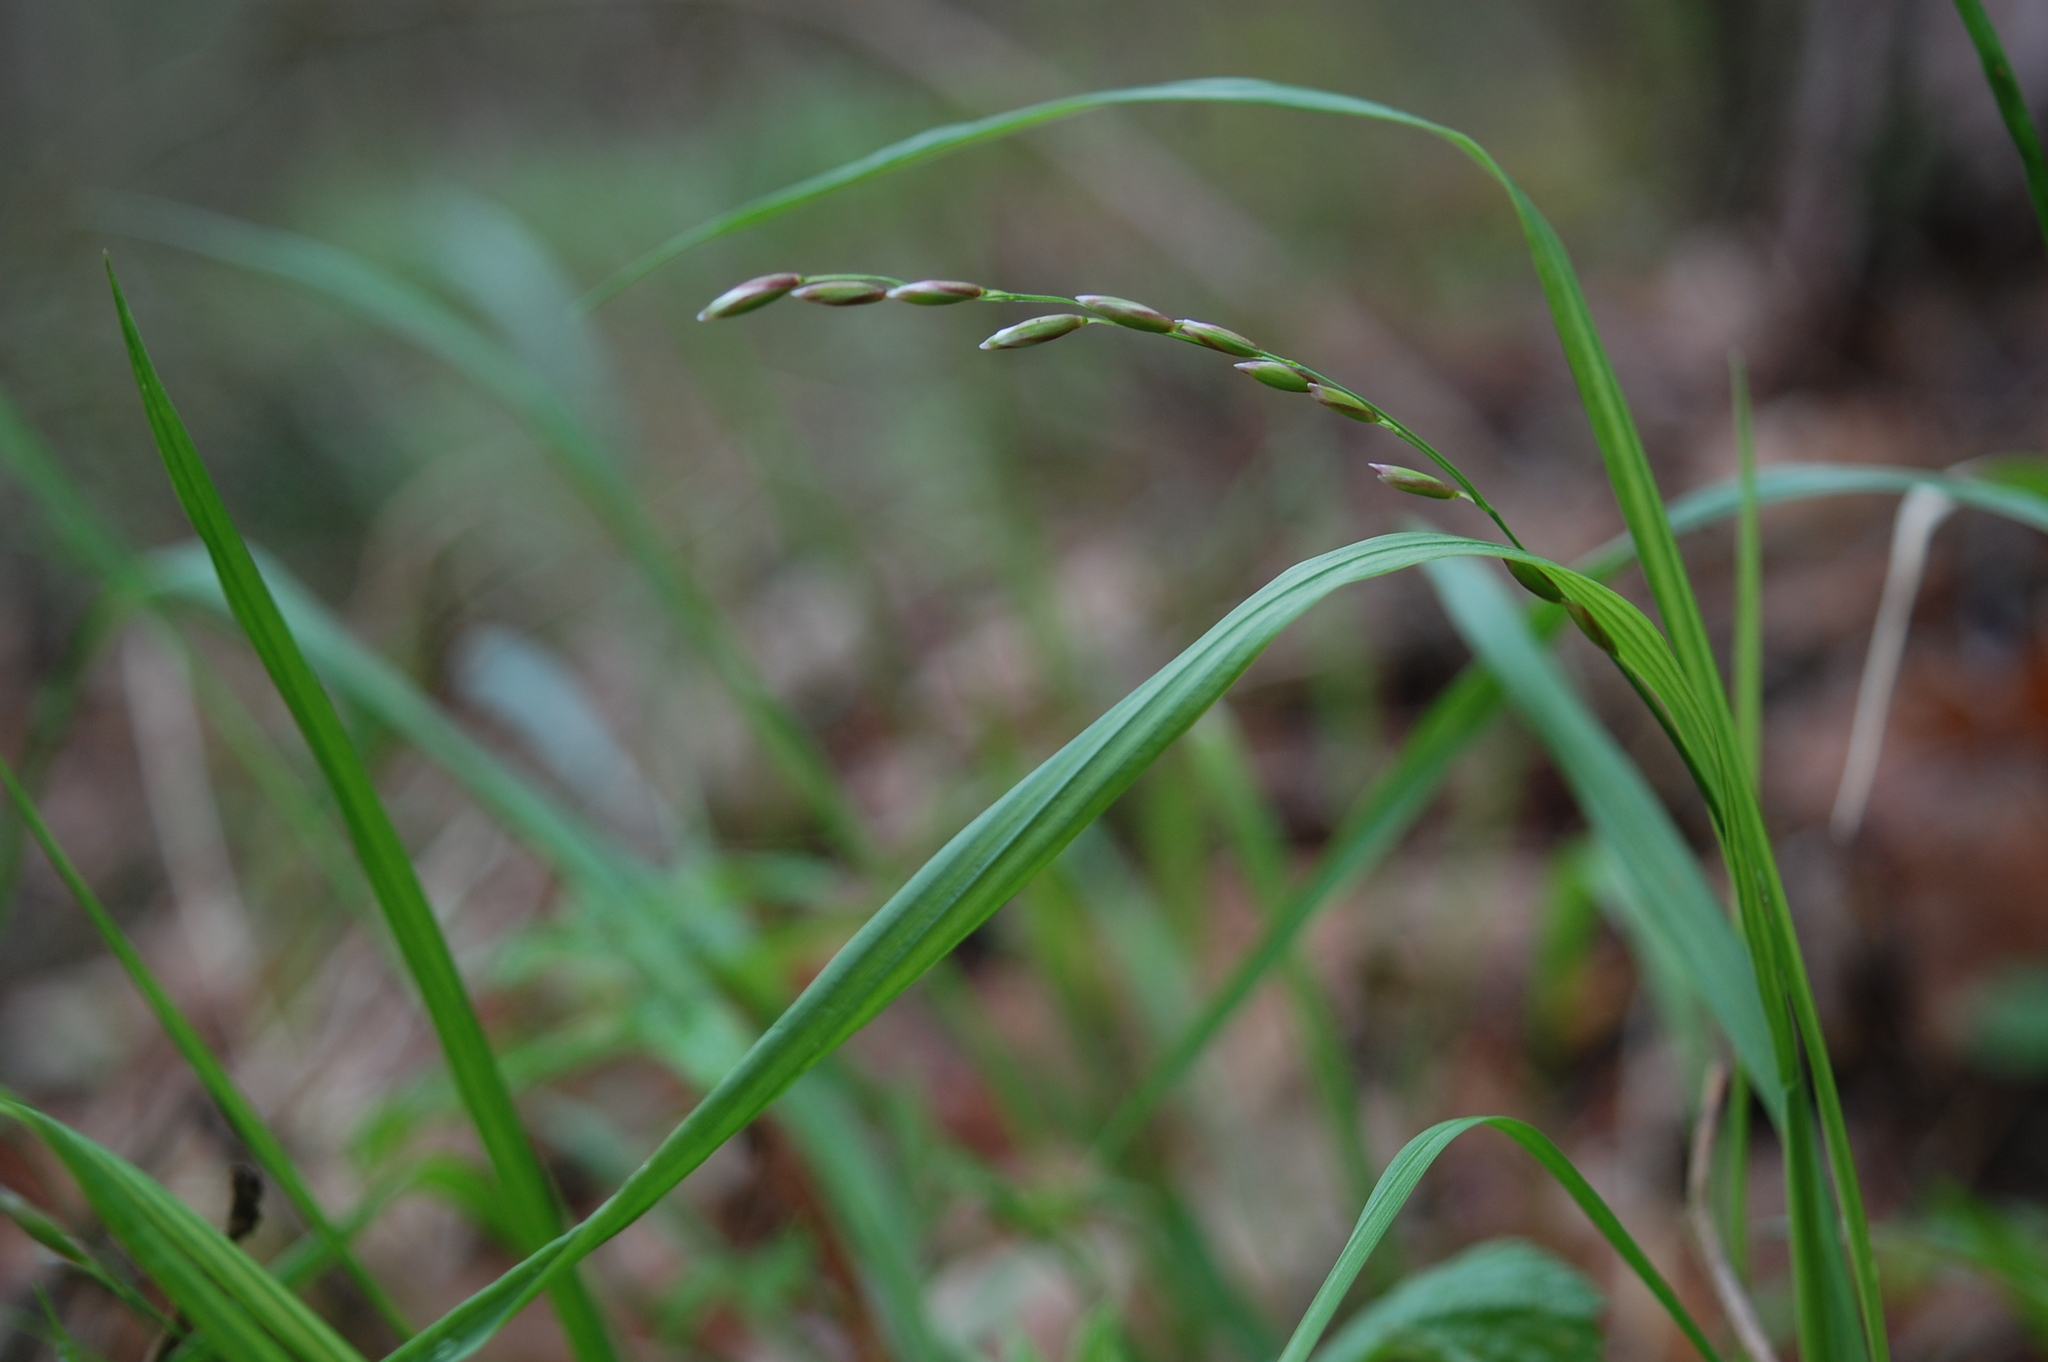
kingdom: Plantae
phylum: Tracheophyta
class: Liliopsida
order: Poales
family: Poaceae
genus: Melica
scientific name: Melica nutans
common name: Mountain melick
